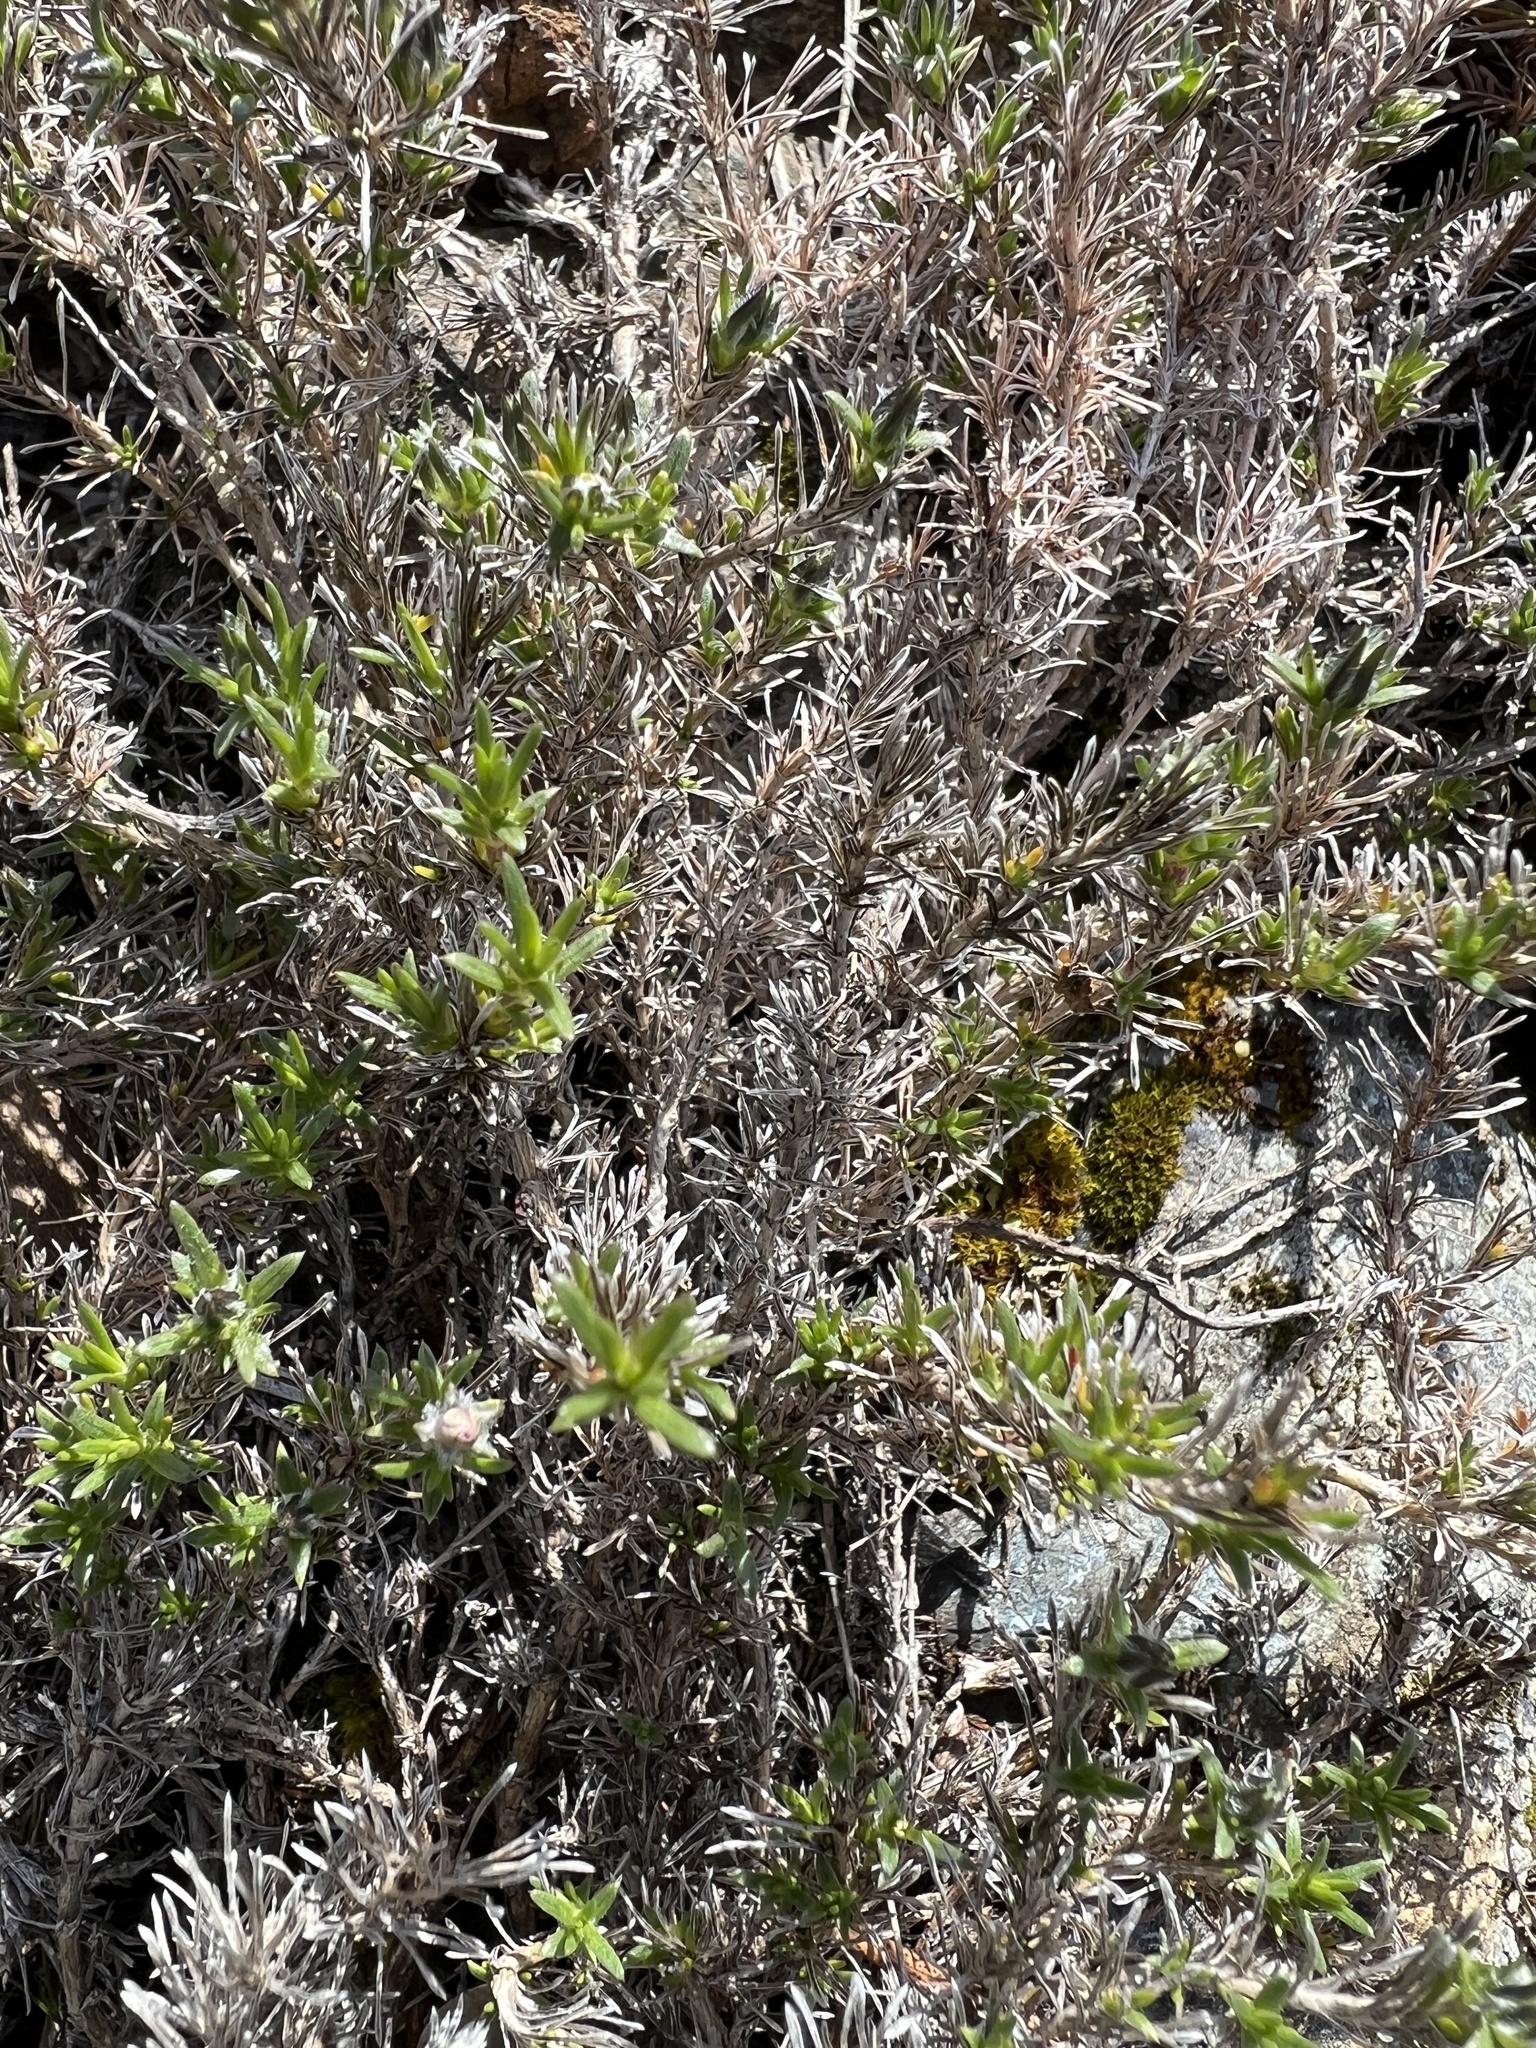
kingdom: Plantae
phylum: Tracheophyta
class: Magnoliopsida
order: Ericales
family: Polemoniaceae
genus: Phlox
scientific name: Phlox diffusa
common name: Mat phlox
